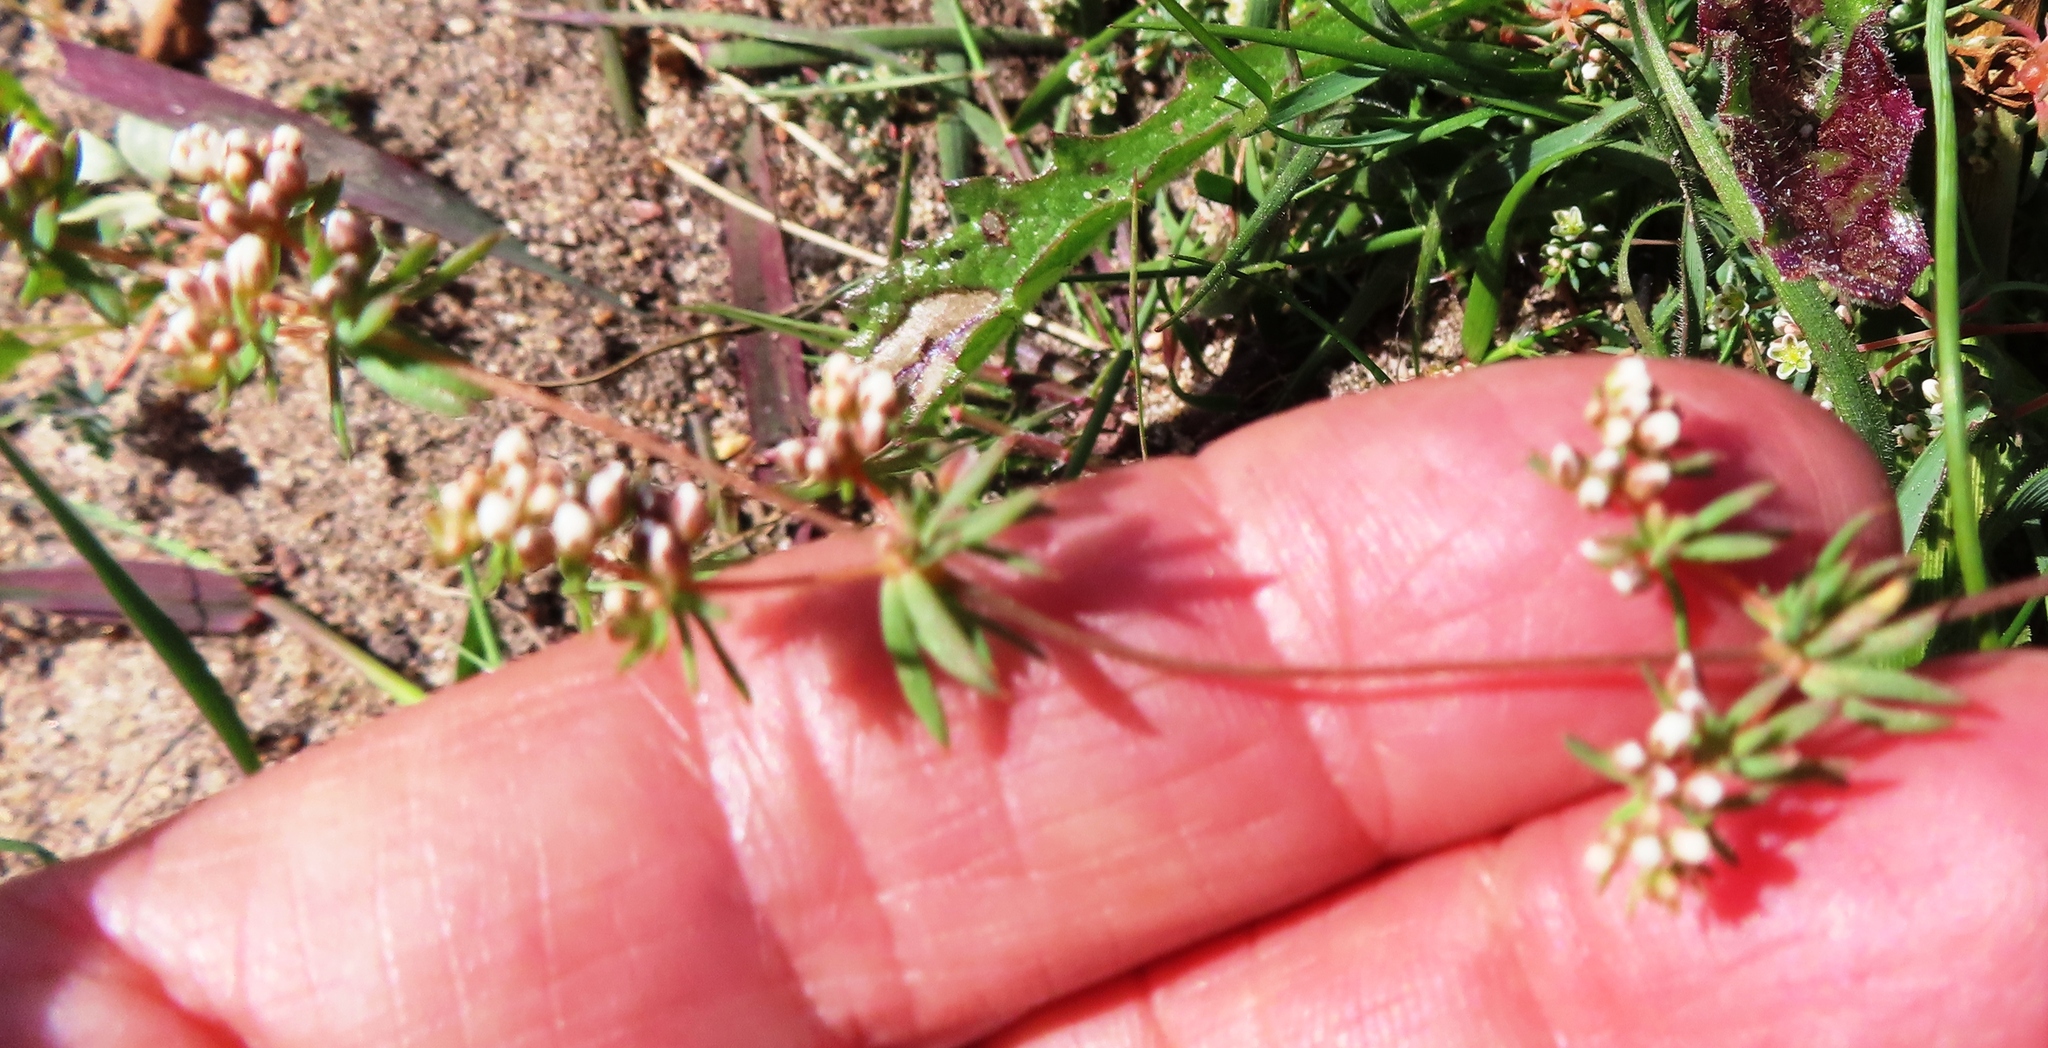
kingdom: Plantae
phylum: Tracheophyta
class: Magnoliopsida
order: Caryophyllales
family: Molluginaceae
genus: Adenogramma
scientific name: Adenogramma glomerata
